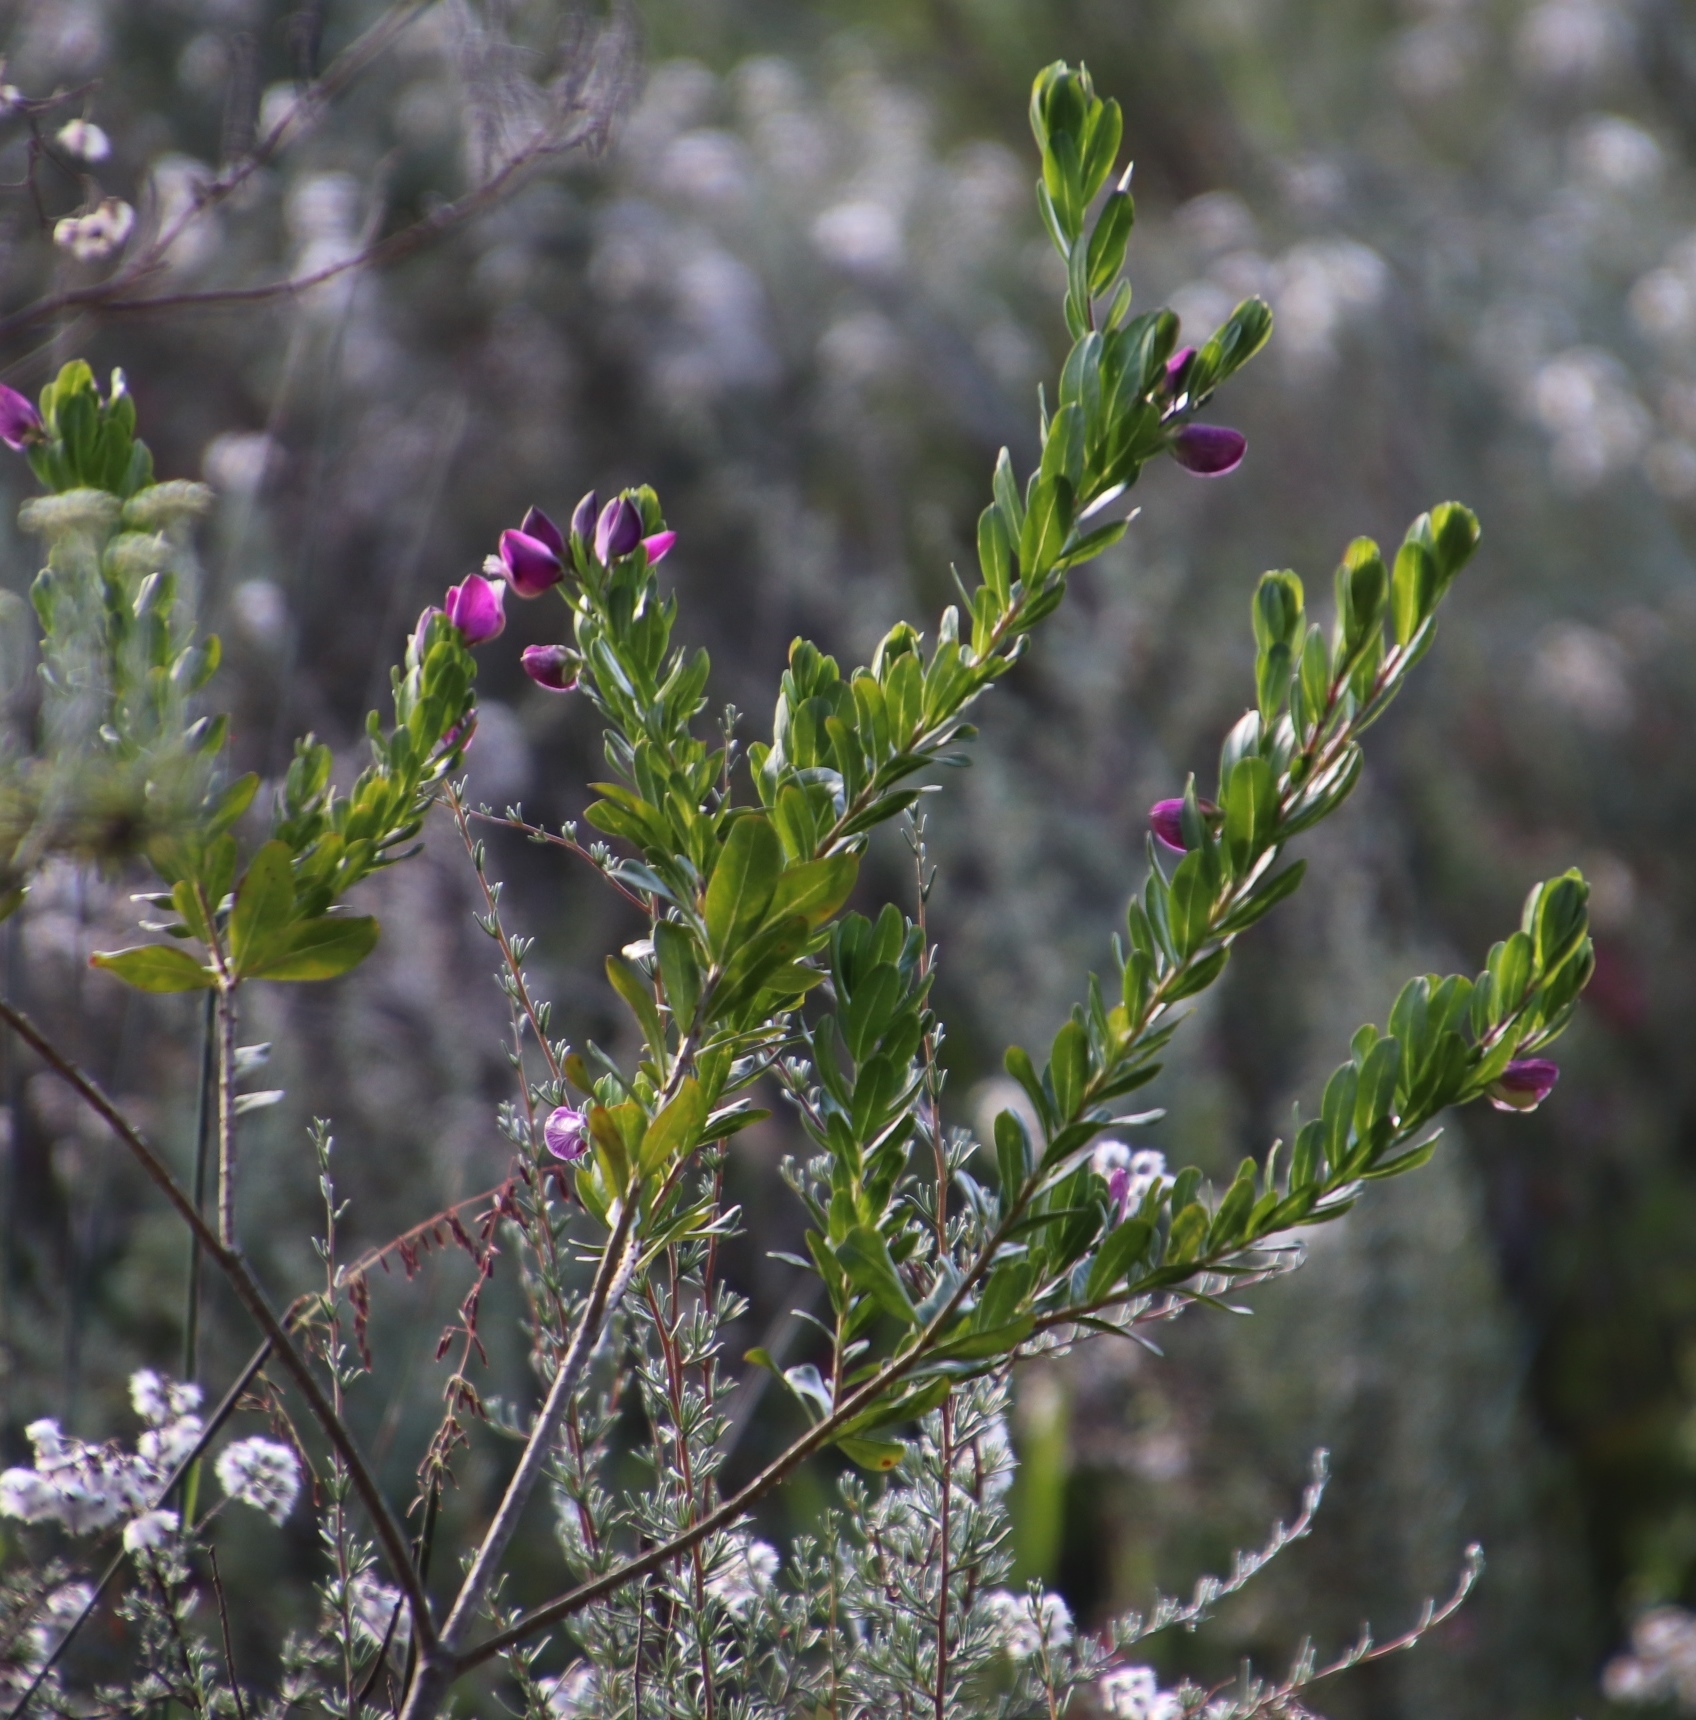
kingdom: Plantae
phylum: Tracheophyta
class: Magnoliopsida
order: Fabales
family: Polygalaceae
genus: Polygala
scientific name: Polygala myrtifolia
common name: Myrtle-leaf milkwort
